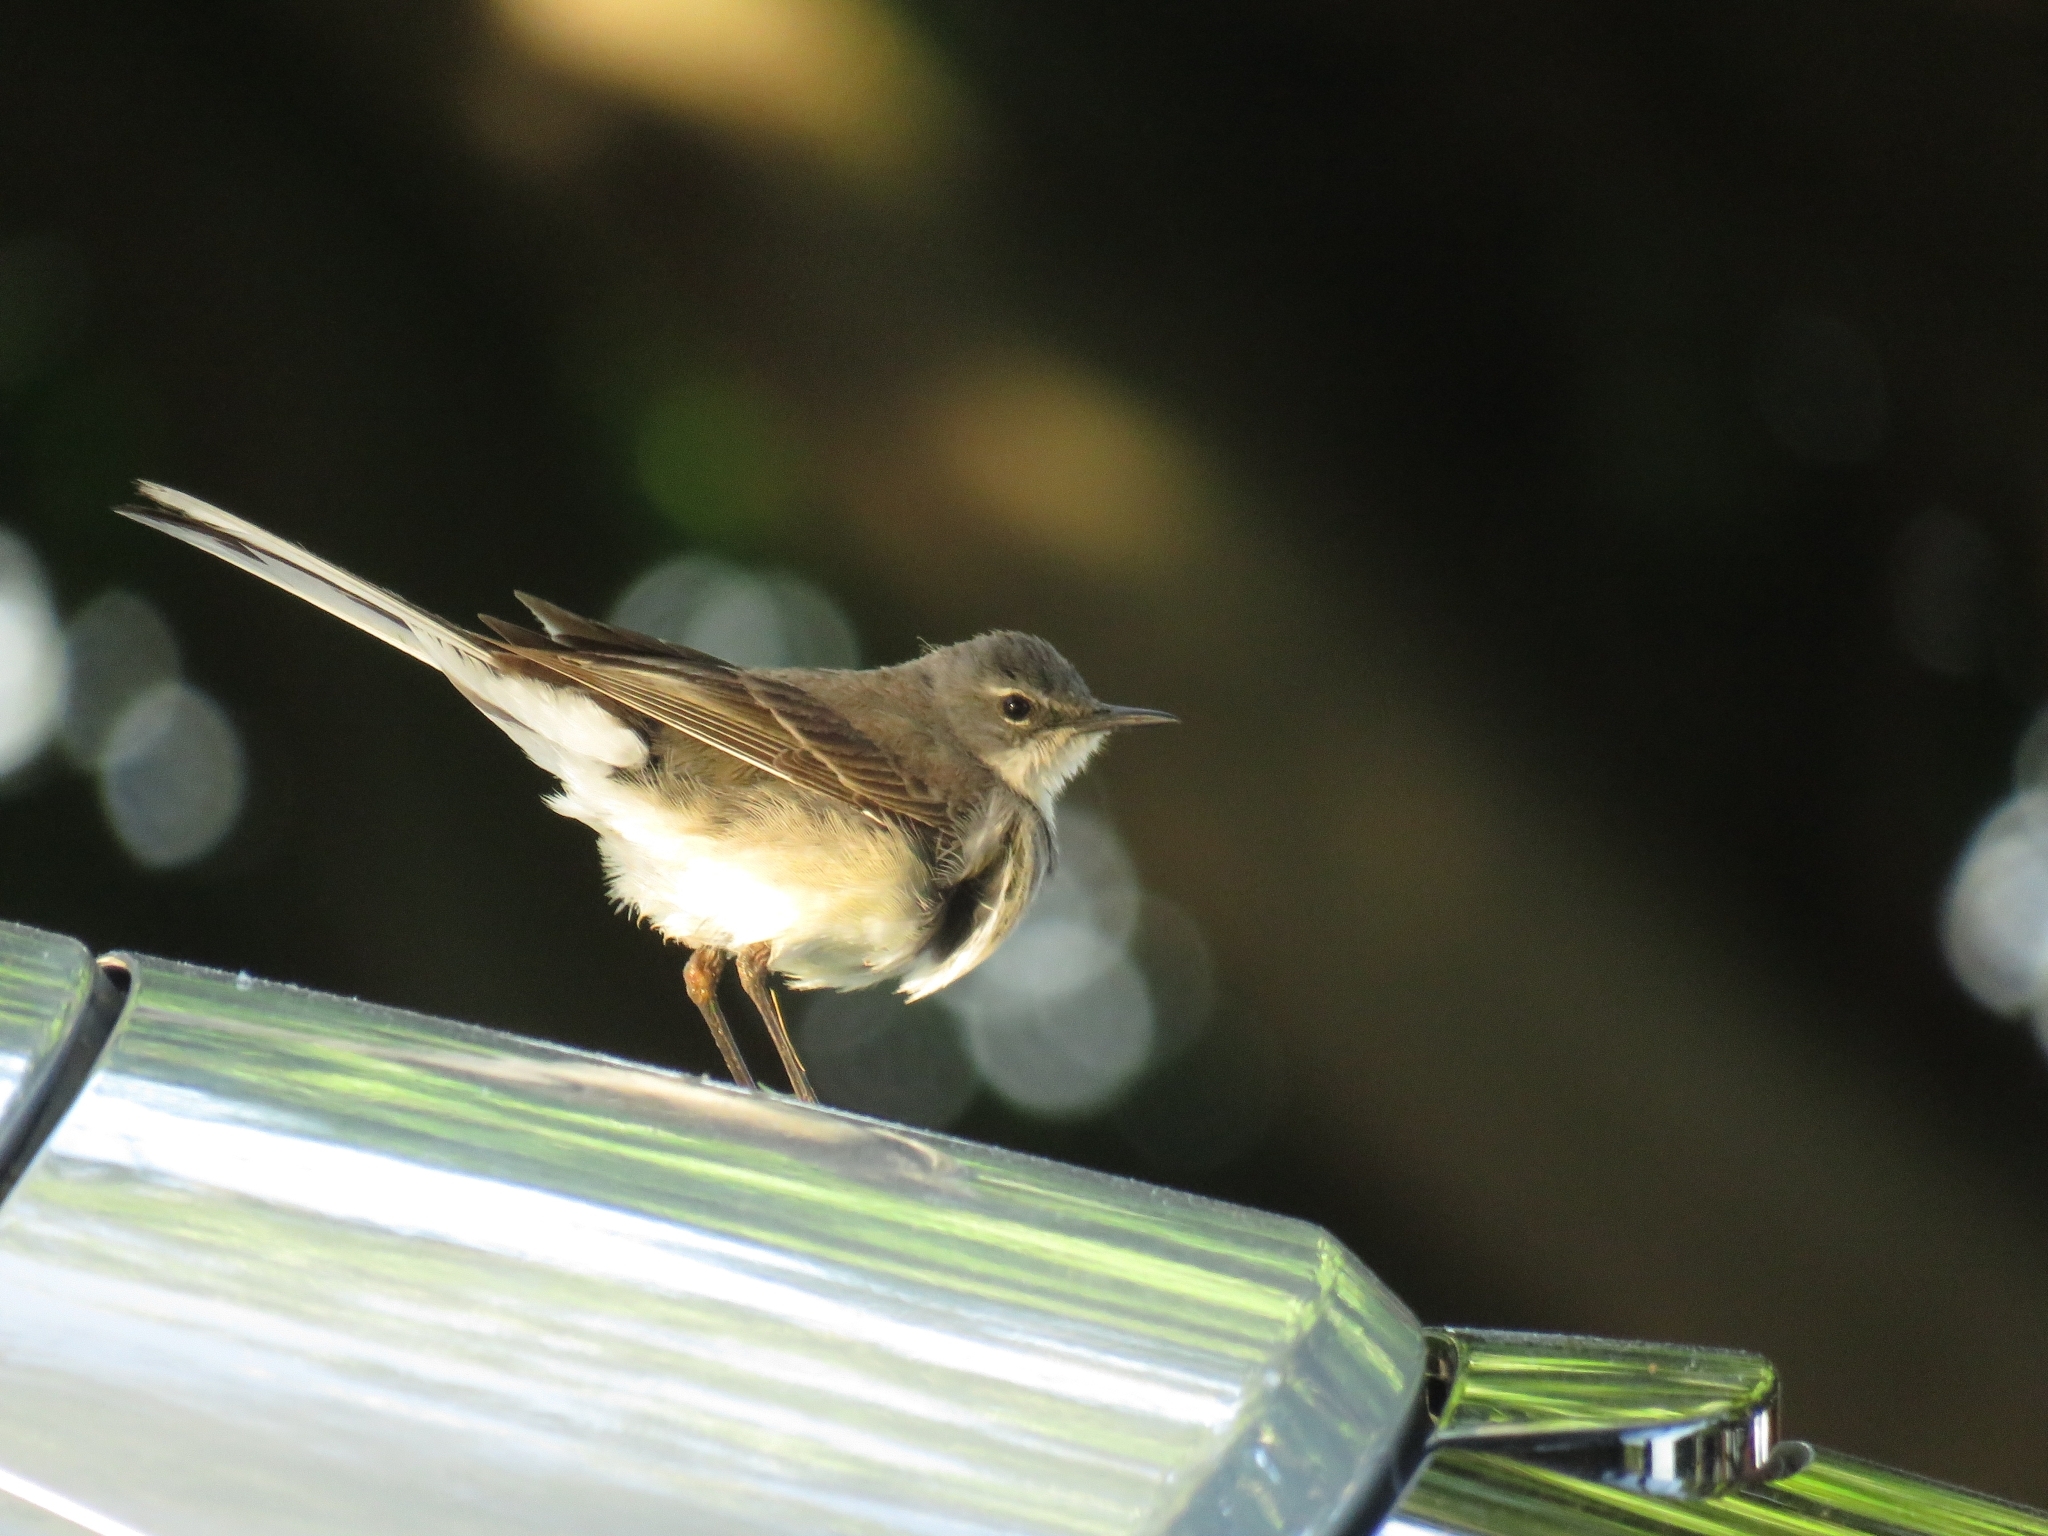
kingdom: Animalia
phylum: Chordata
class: Aves
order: Passeriformes
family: Motacillidae
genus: Motacilla
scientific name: Motacilla capensis
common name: Cape wagtail
